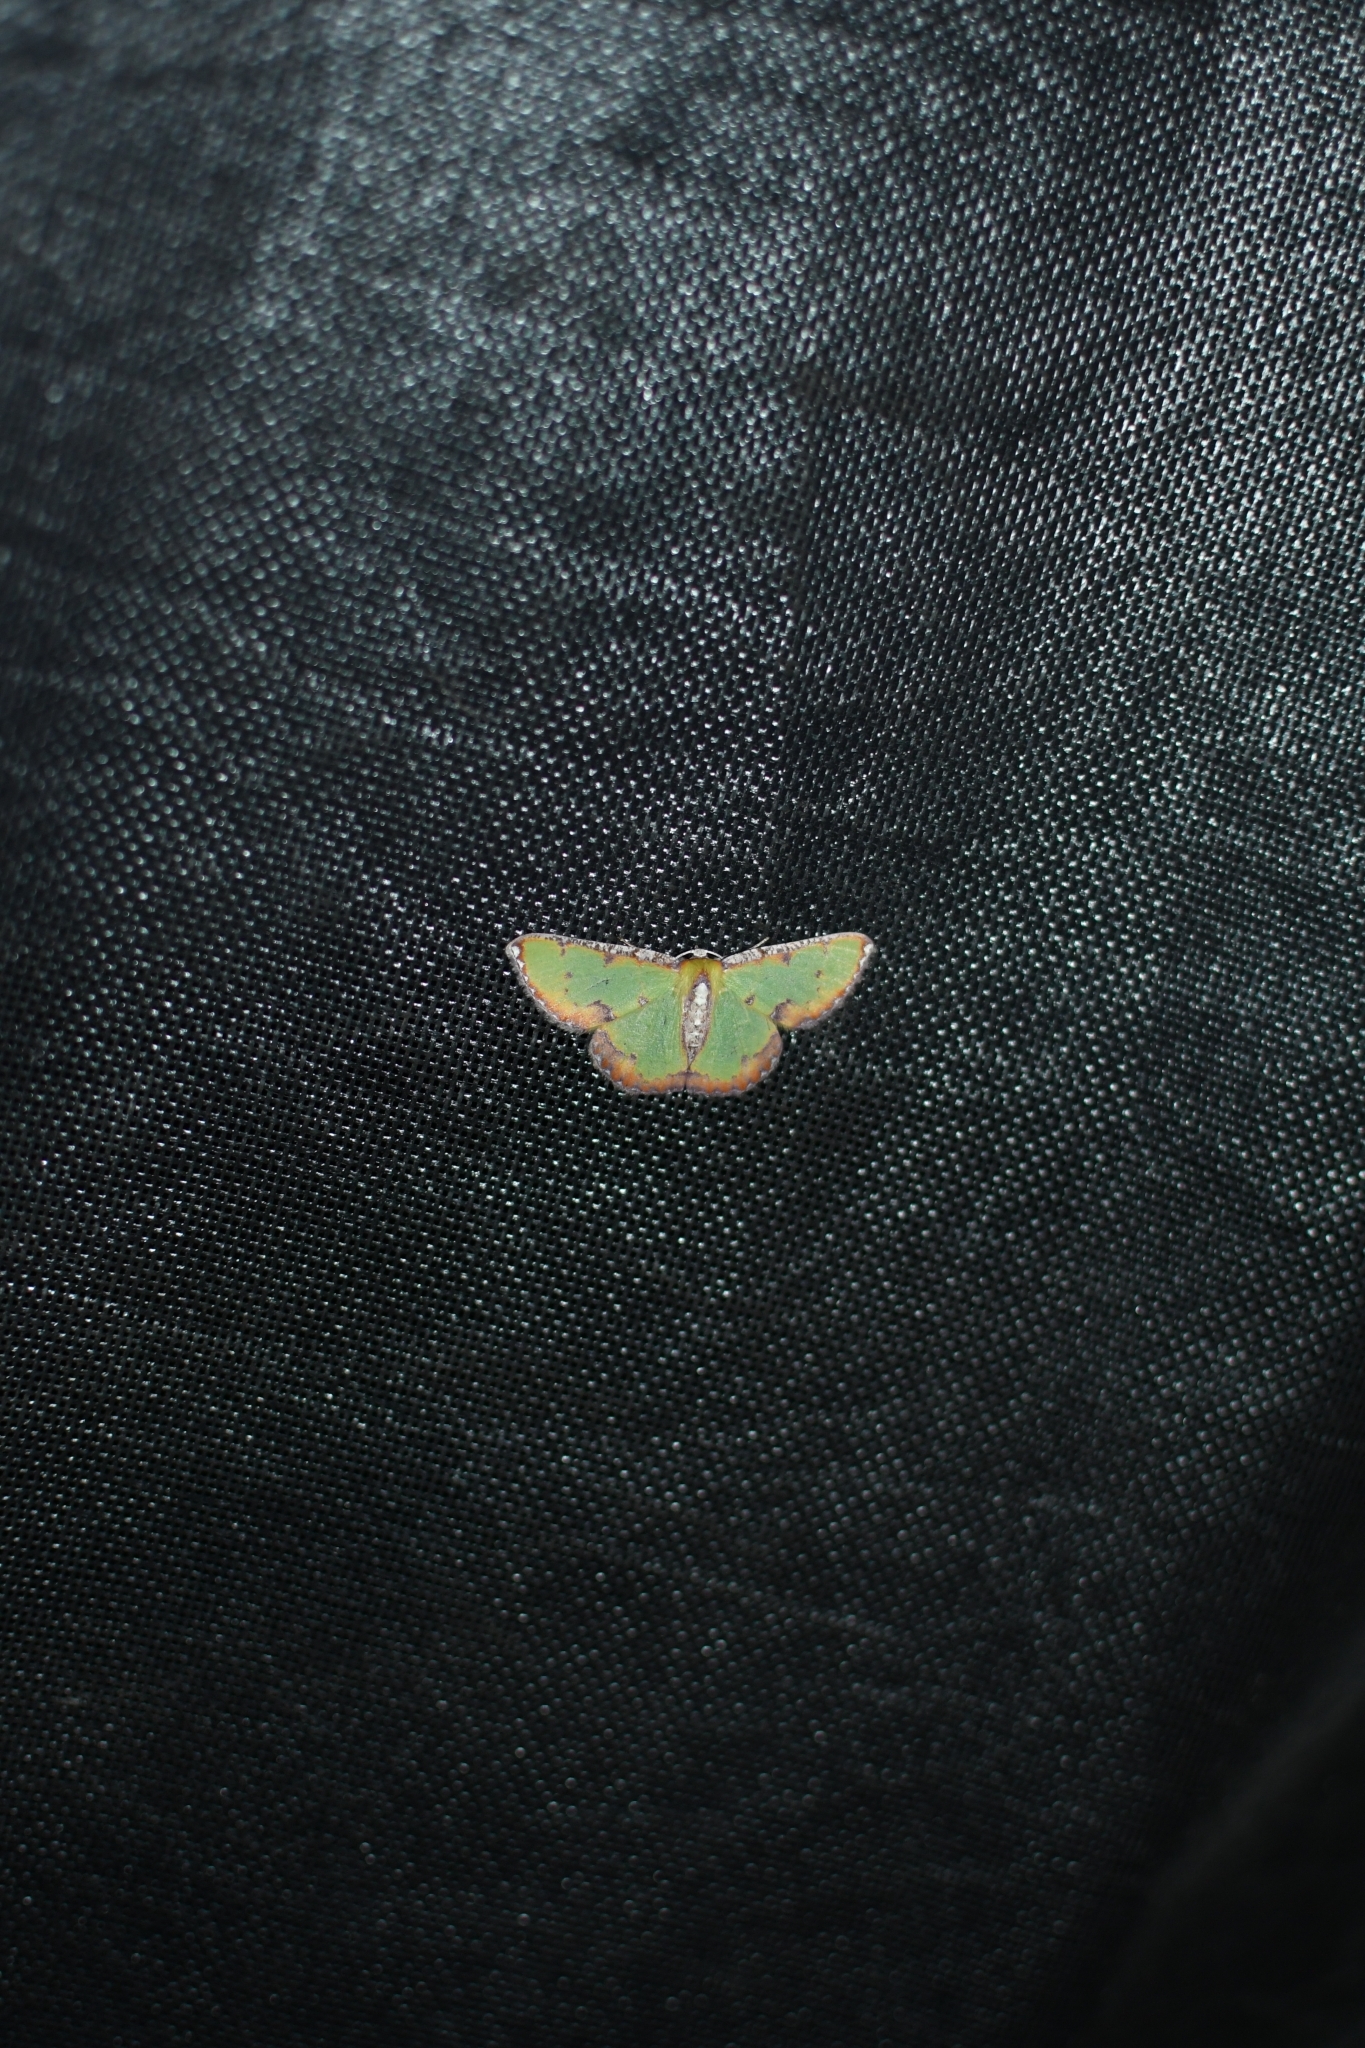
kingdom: Animalia
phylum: Arthropoda
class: Insecta
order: Lepidoptera
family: Geometridae
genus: Eucyclodes
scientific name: Eucyclodes buprestaria
